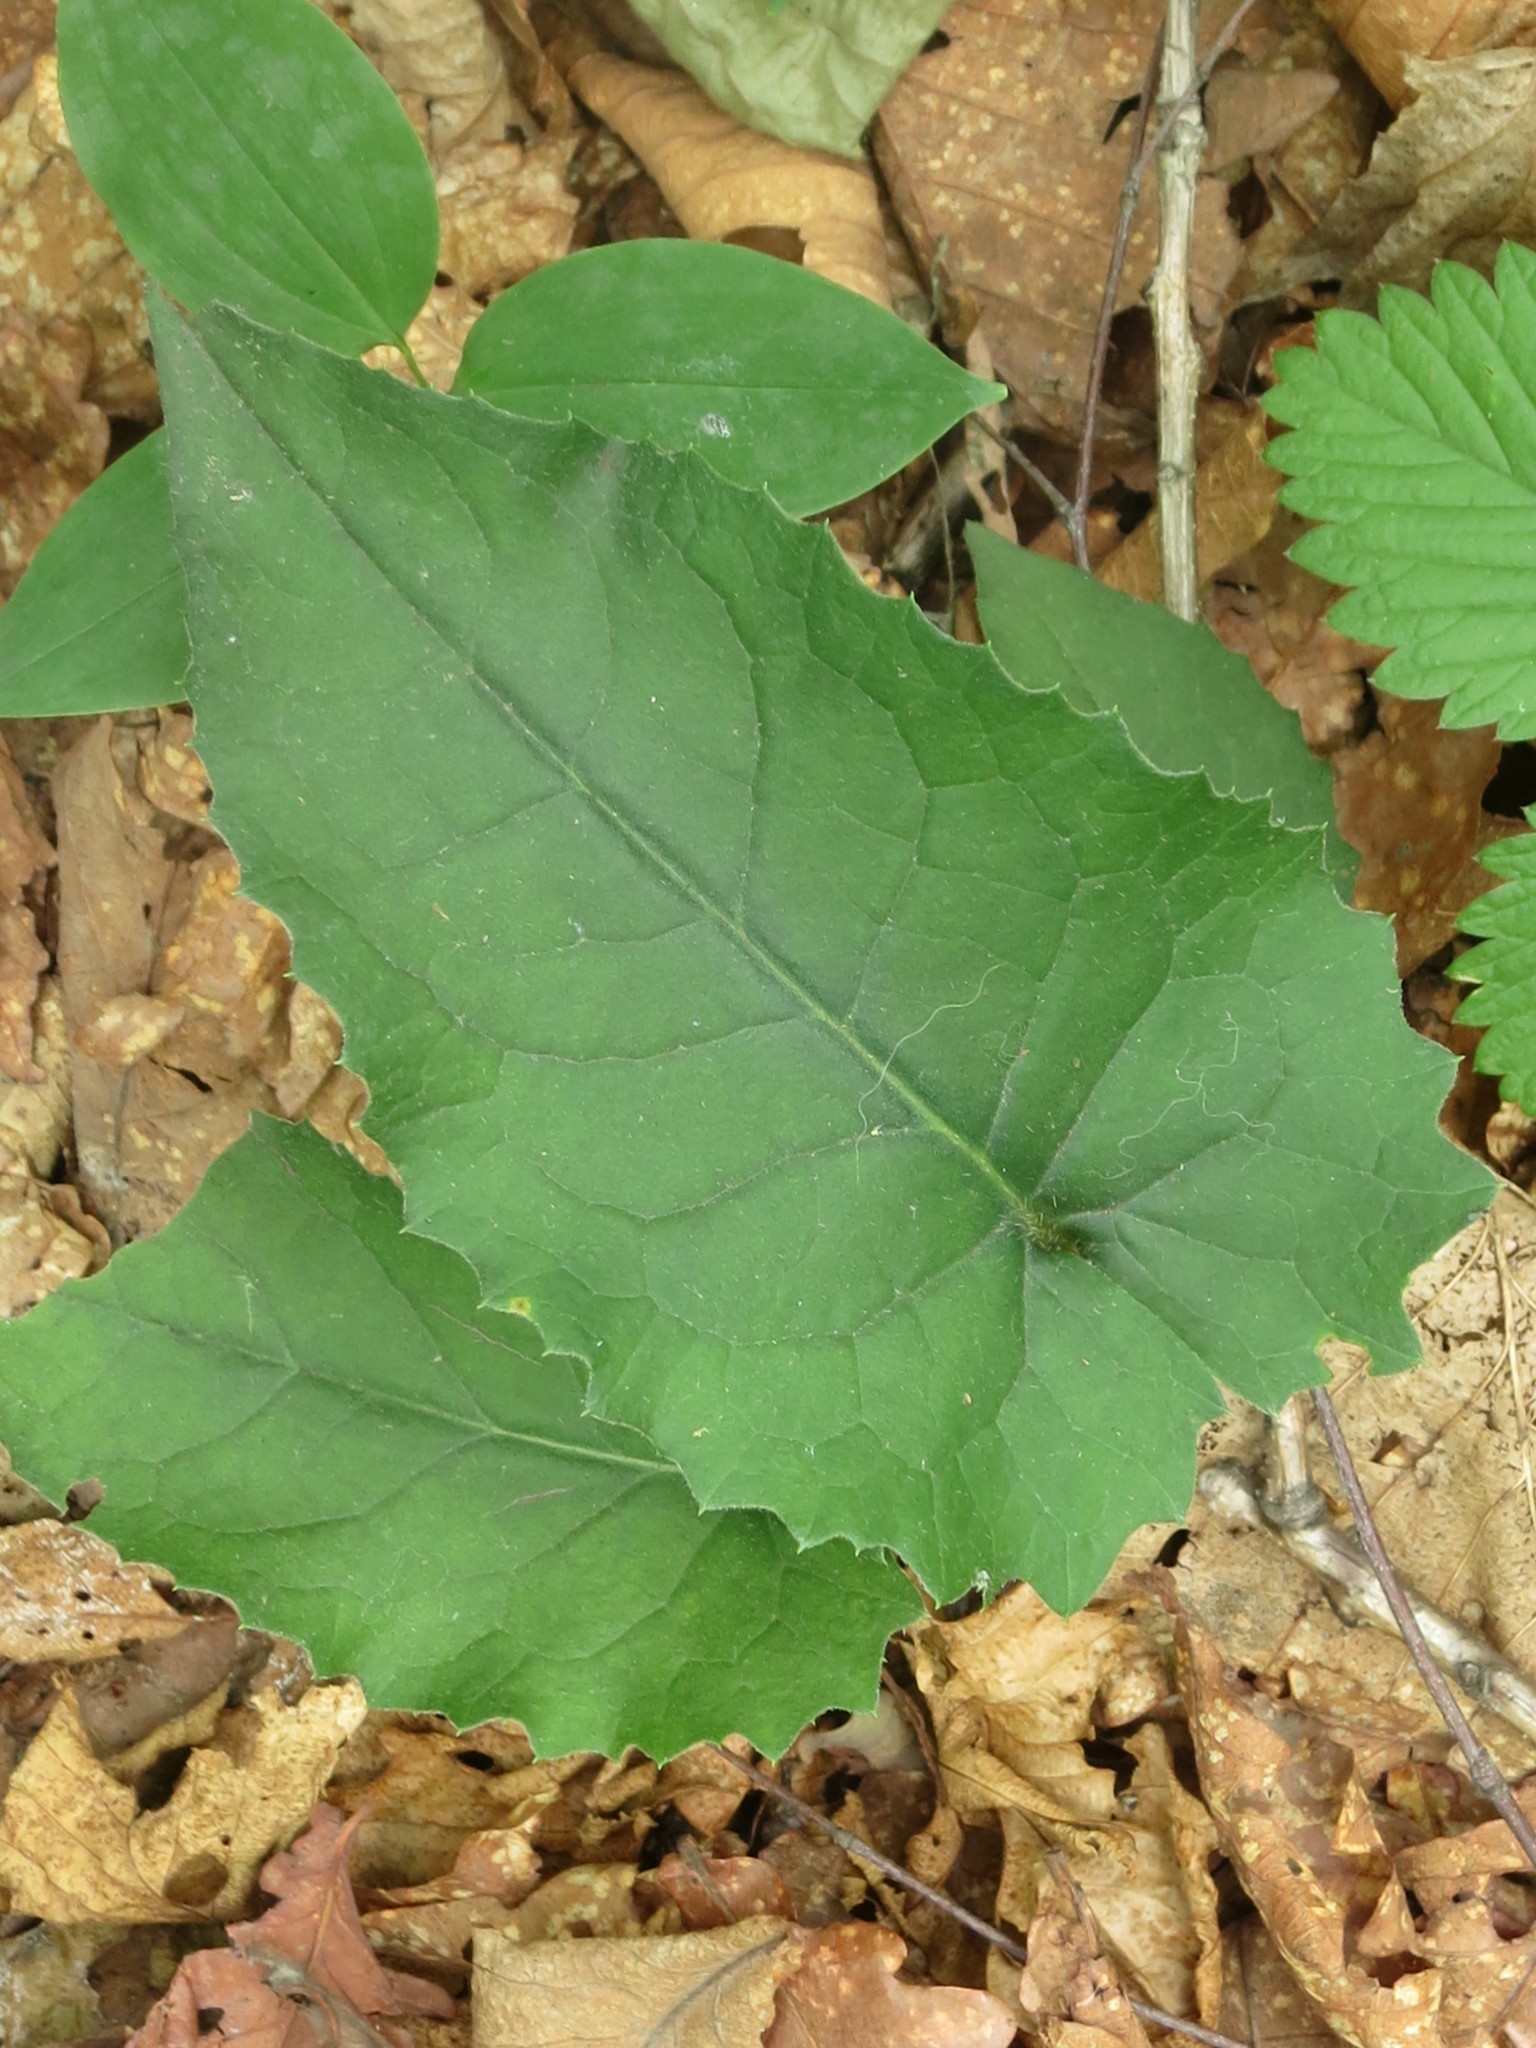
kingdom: Plantae
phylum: Tracheophyta
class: Magnoliopsida
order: Asterales
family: Asteraceae
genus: Aster
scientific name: Aster scaber
